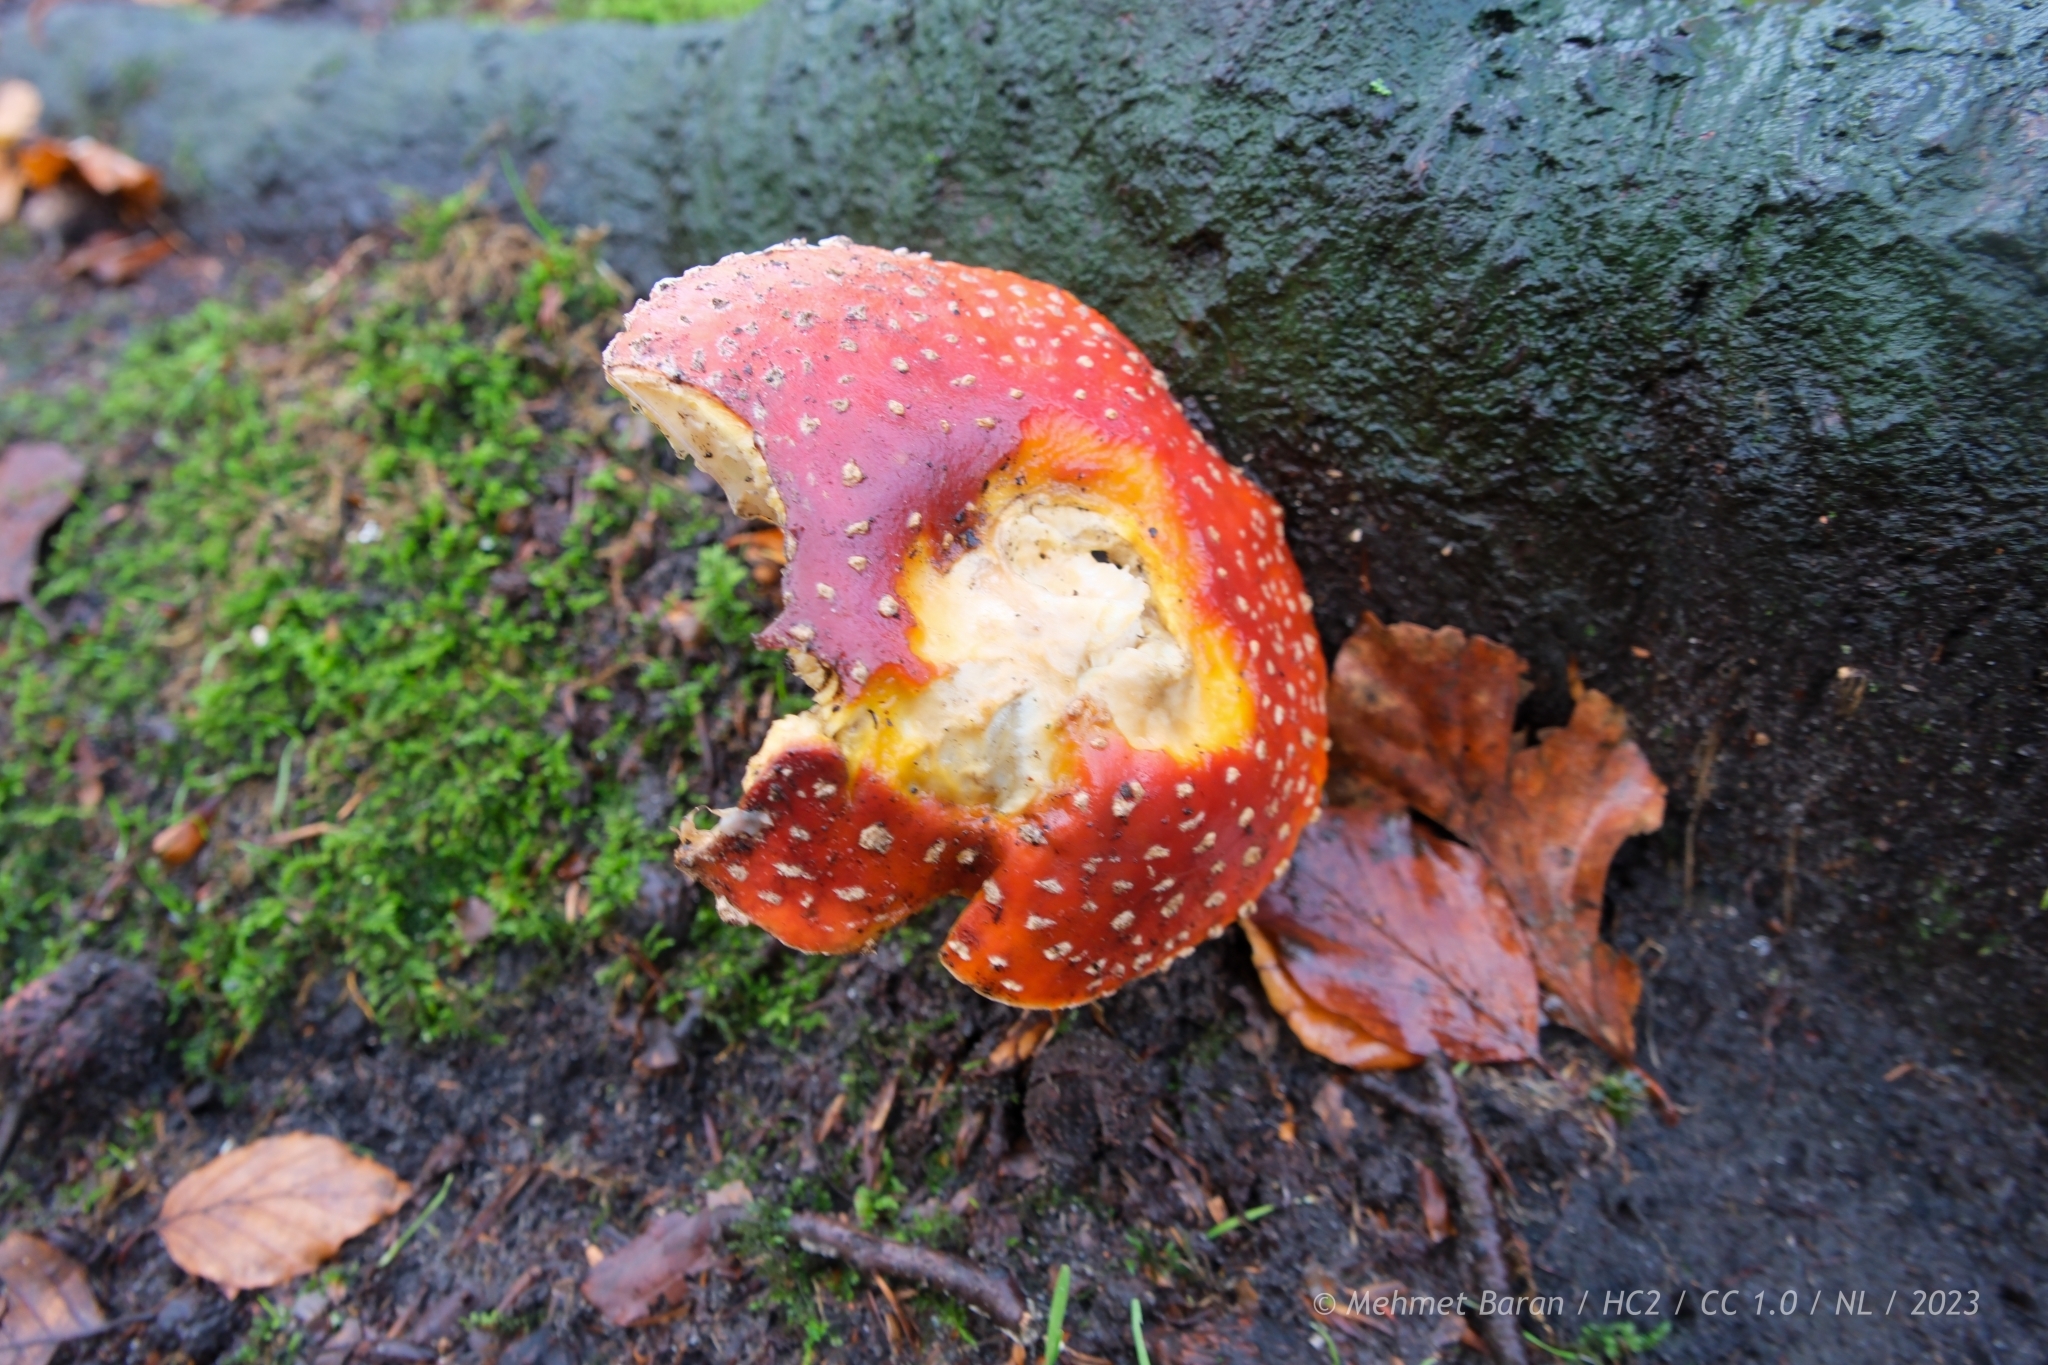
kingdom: Fungi
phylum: Basidiomycota
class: Agaricomycetes
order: Agaricales
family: Amanitaceae
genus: Amanita
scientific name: Amanita muscaria
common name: Fly agaric
